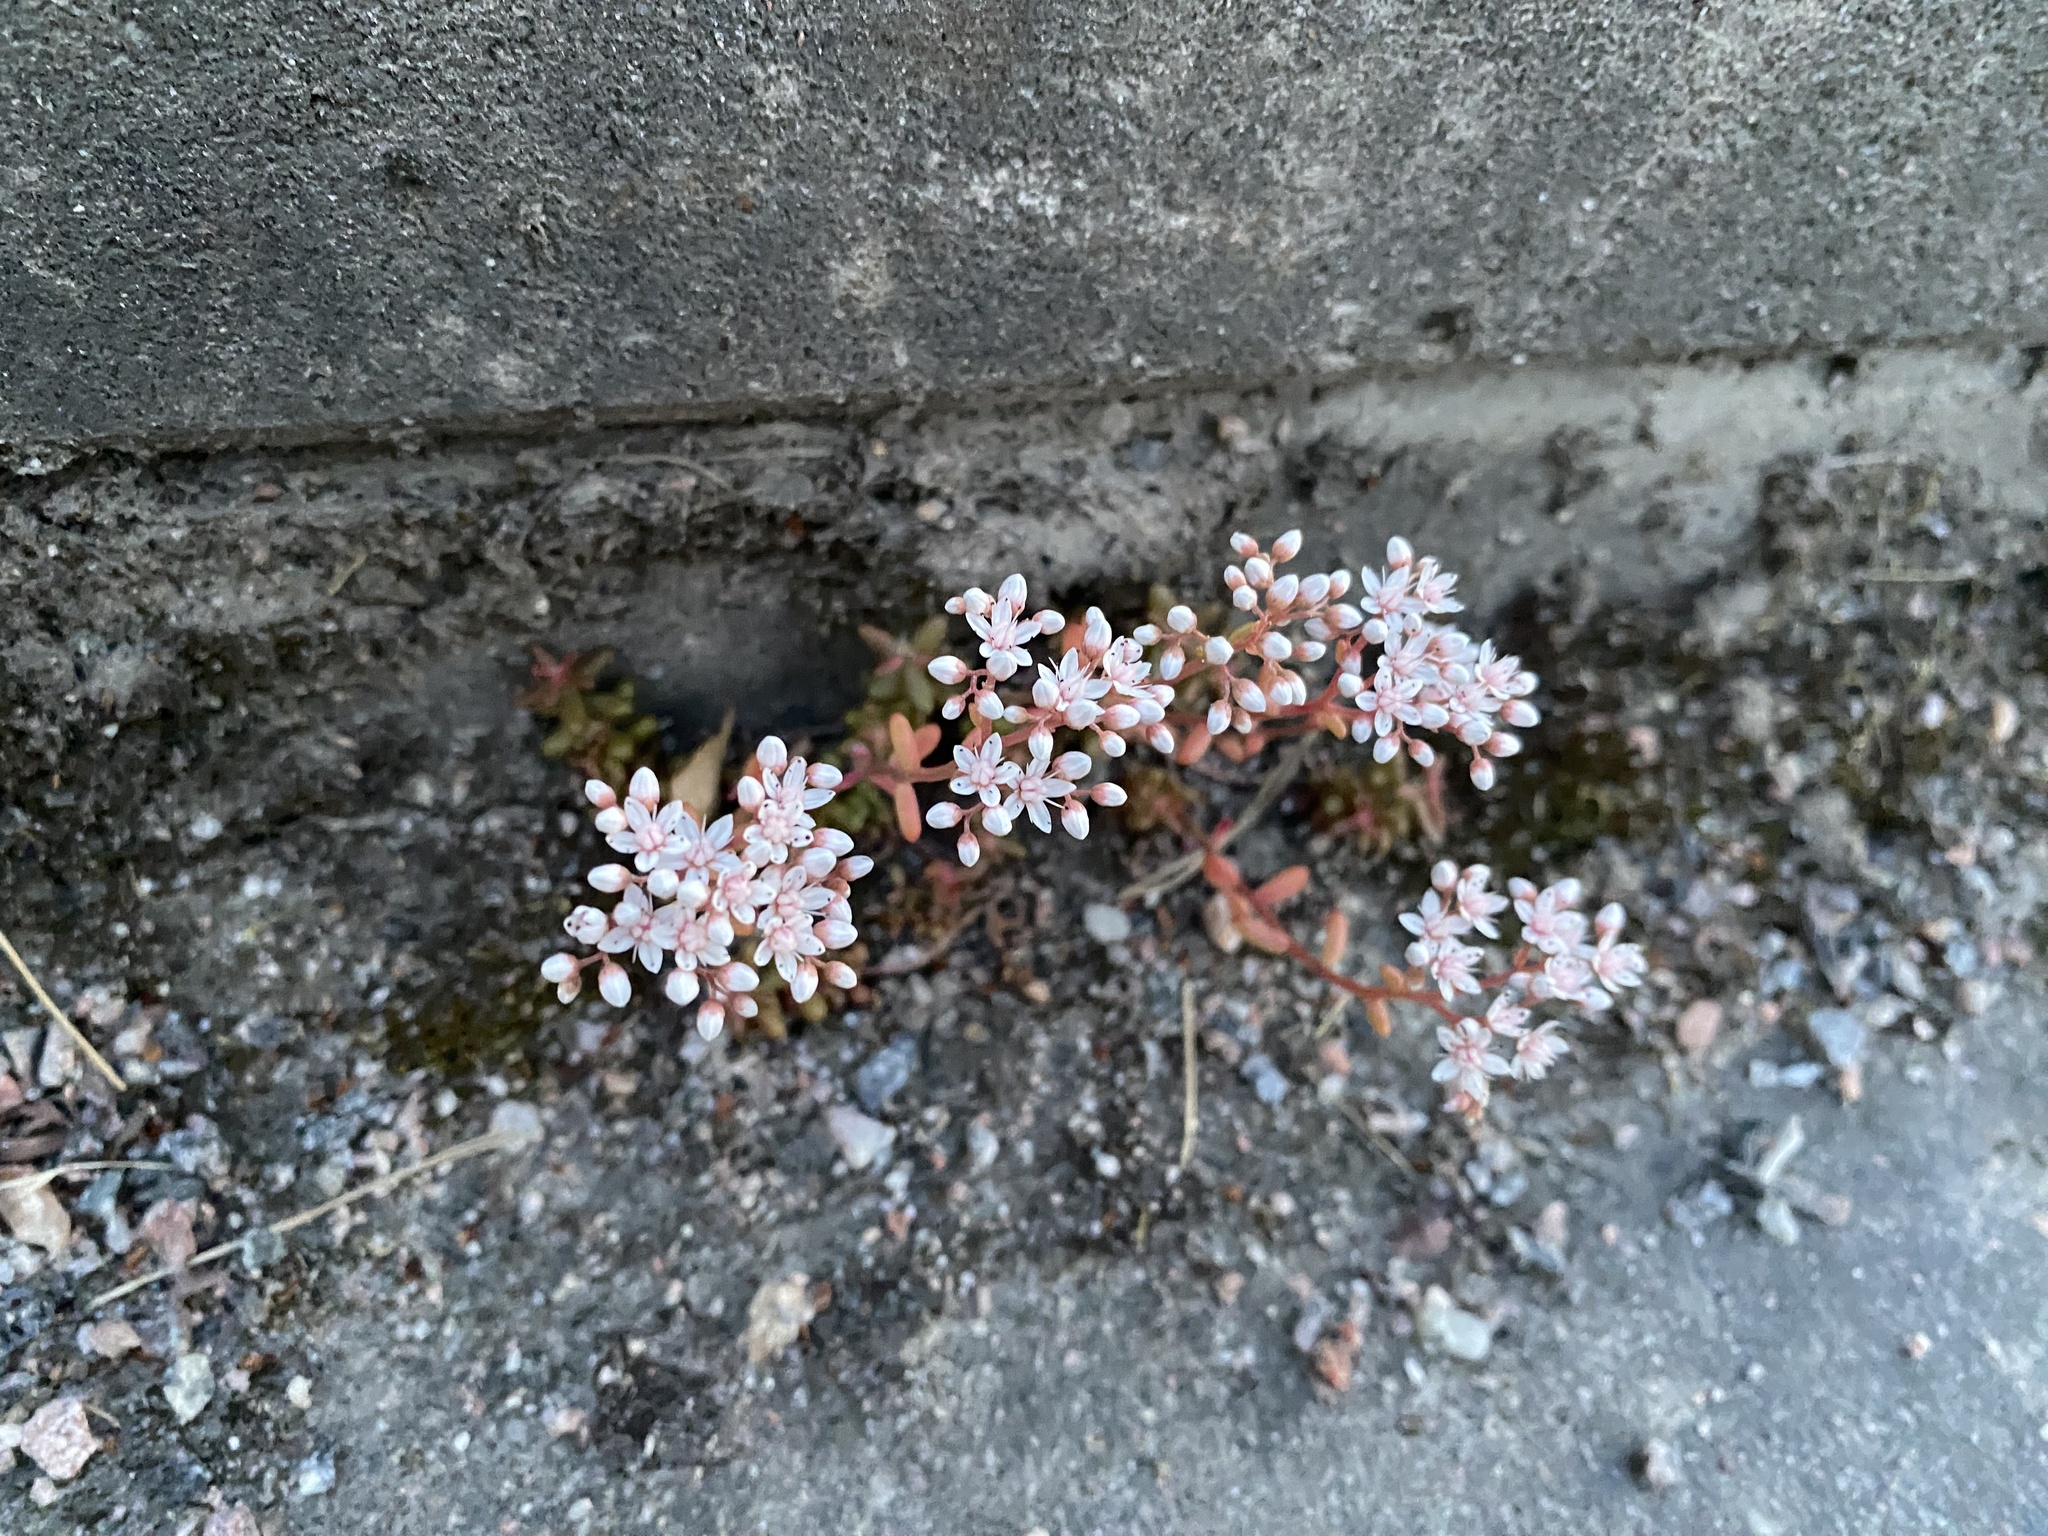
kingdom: Plantae
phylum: Tracheophyta
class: Magnoliopsida
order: Saxifragales
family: Crassulaceae
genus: Sedum
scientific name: Sedum album
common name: White stonecrop
